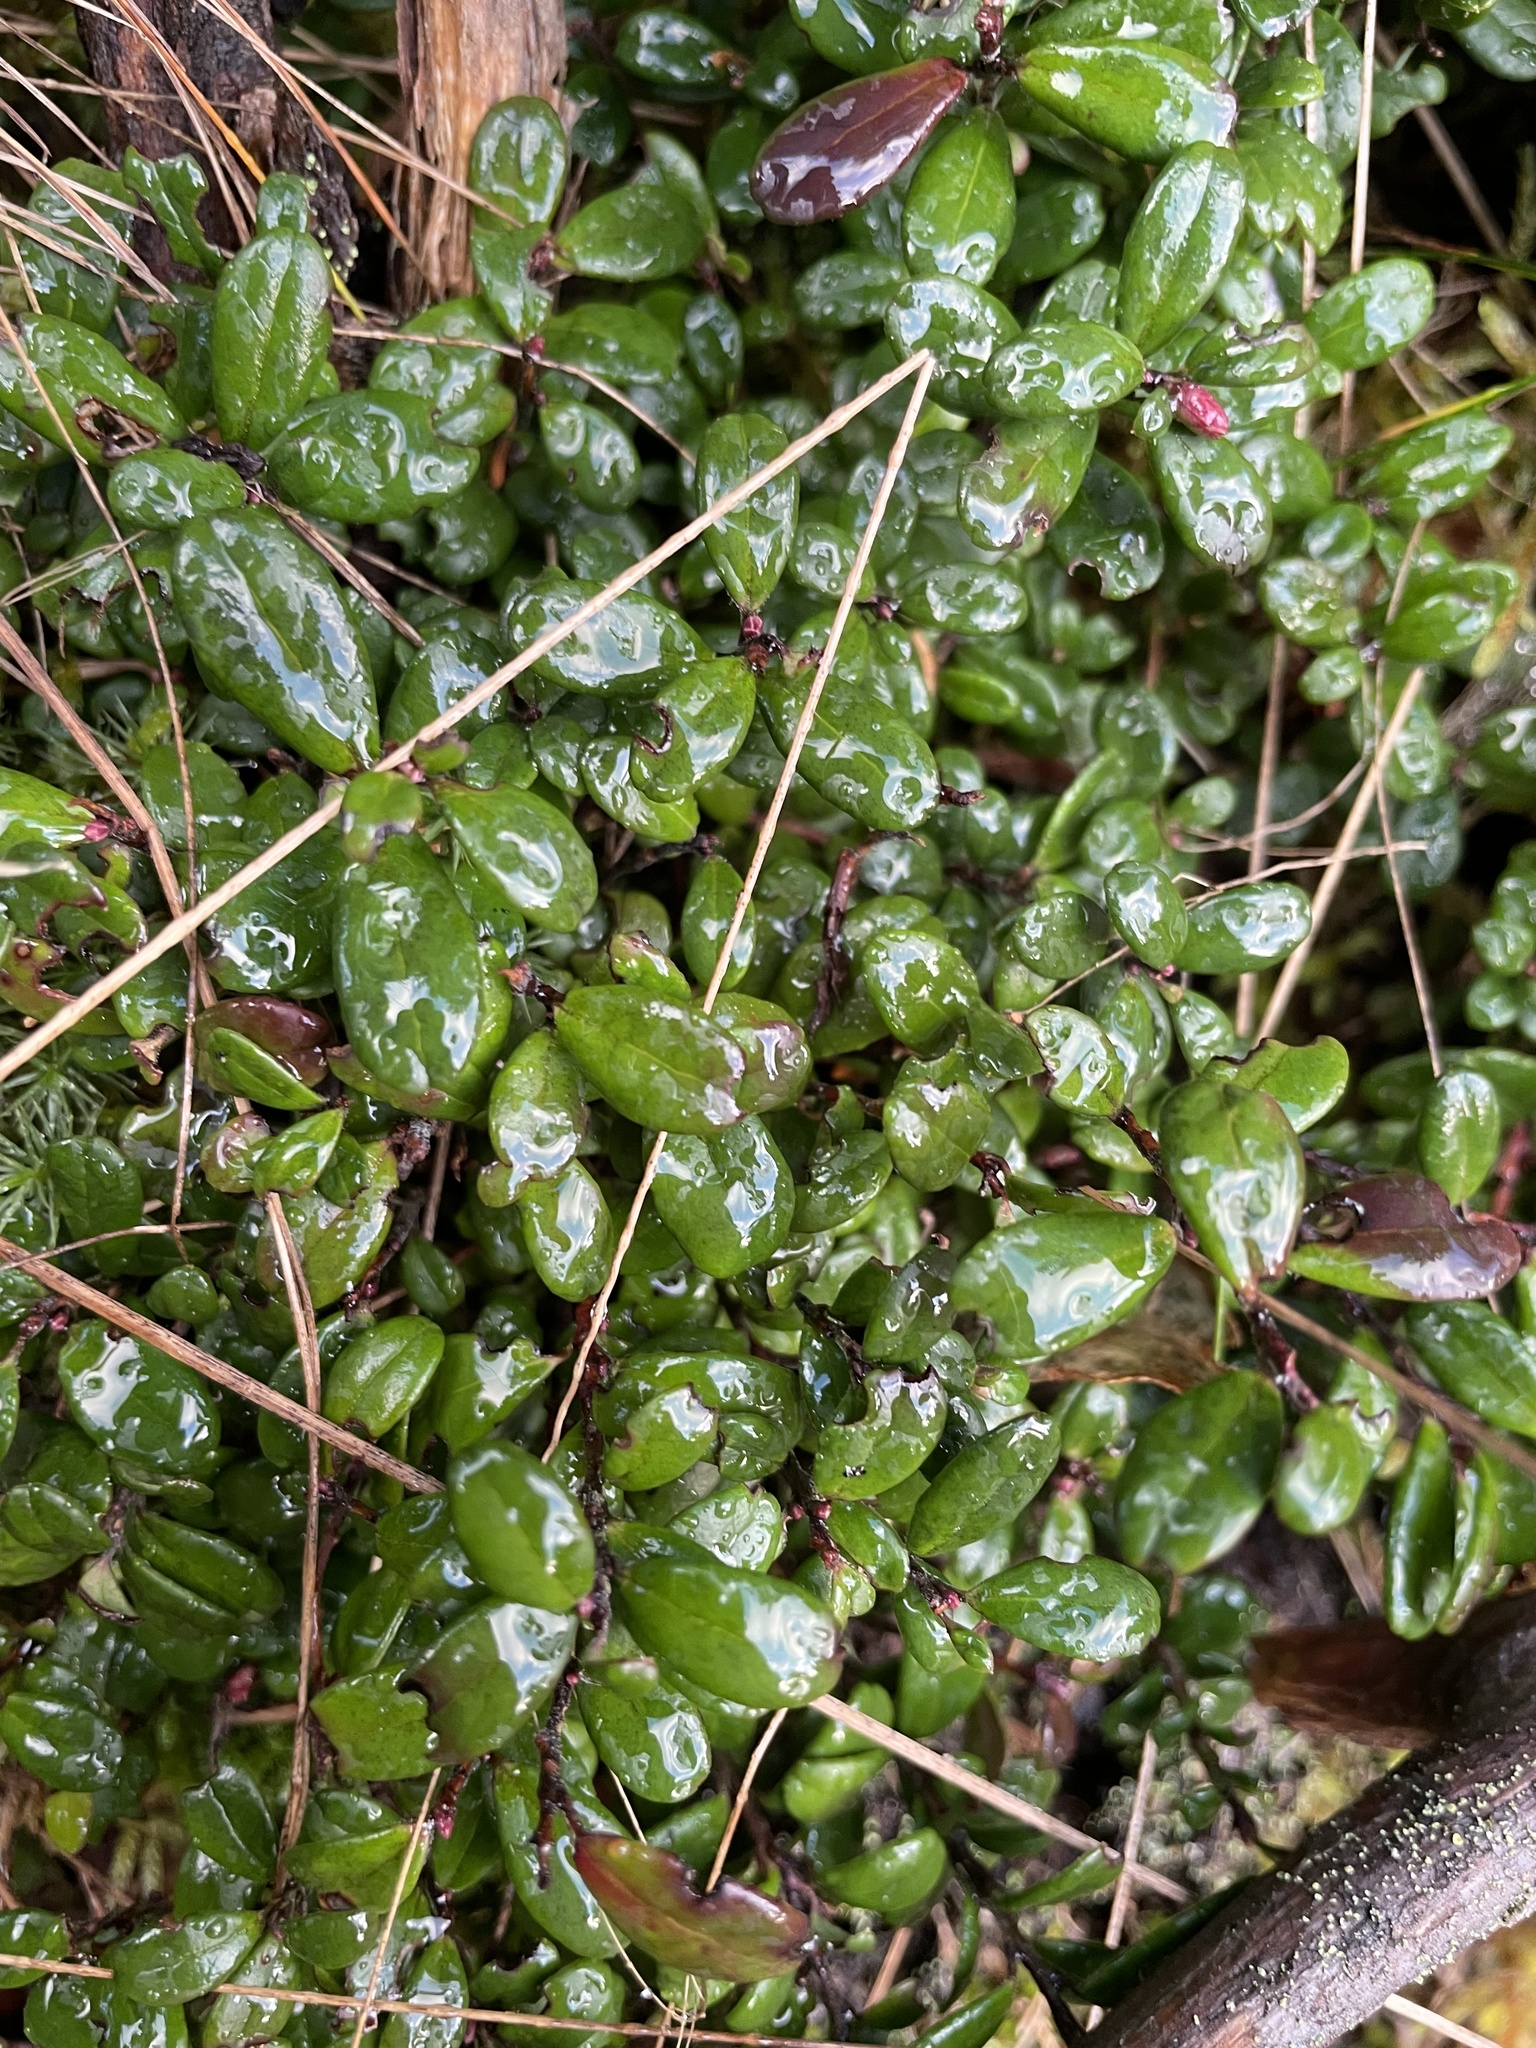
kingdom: Plantae
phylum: Tracheophyta
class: Magnoliopsida
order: Ericales
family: Ericaceae
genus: Vaccinium
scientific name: Vaccinium vitis-idaea
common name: Cowberry
